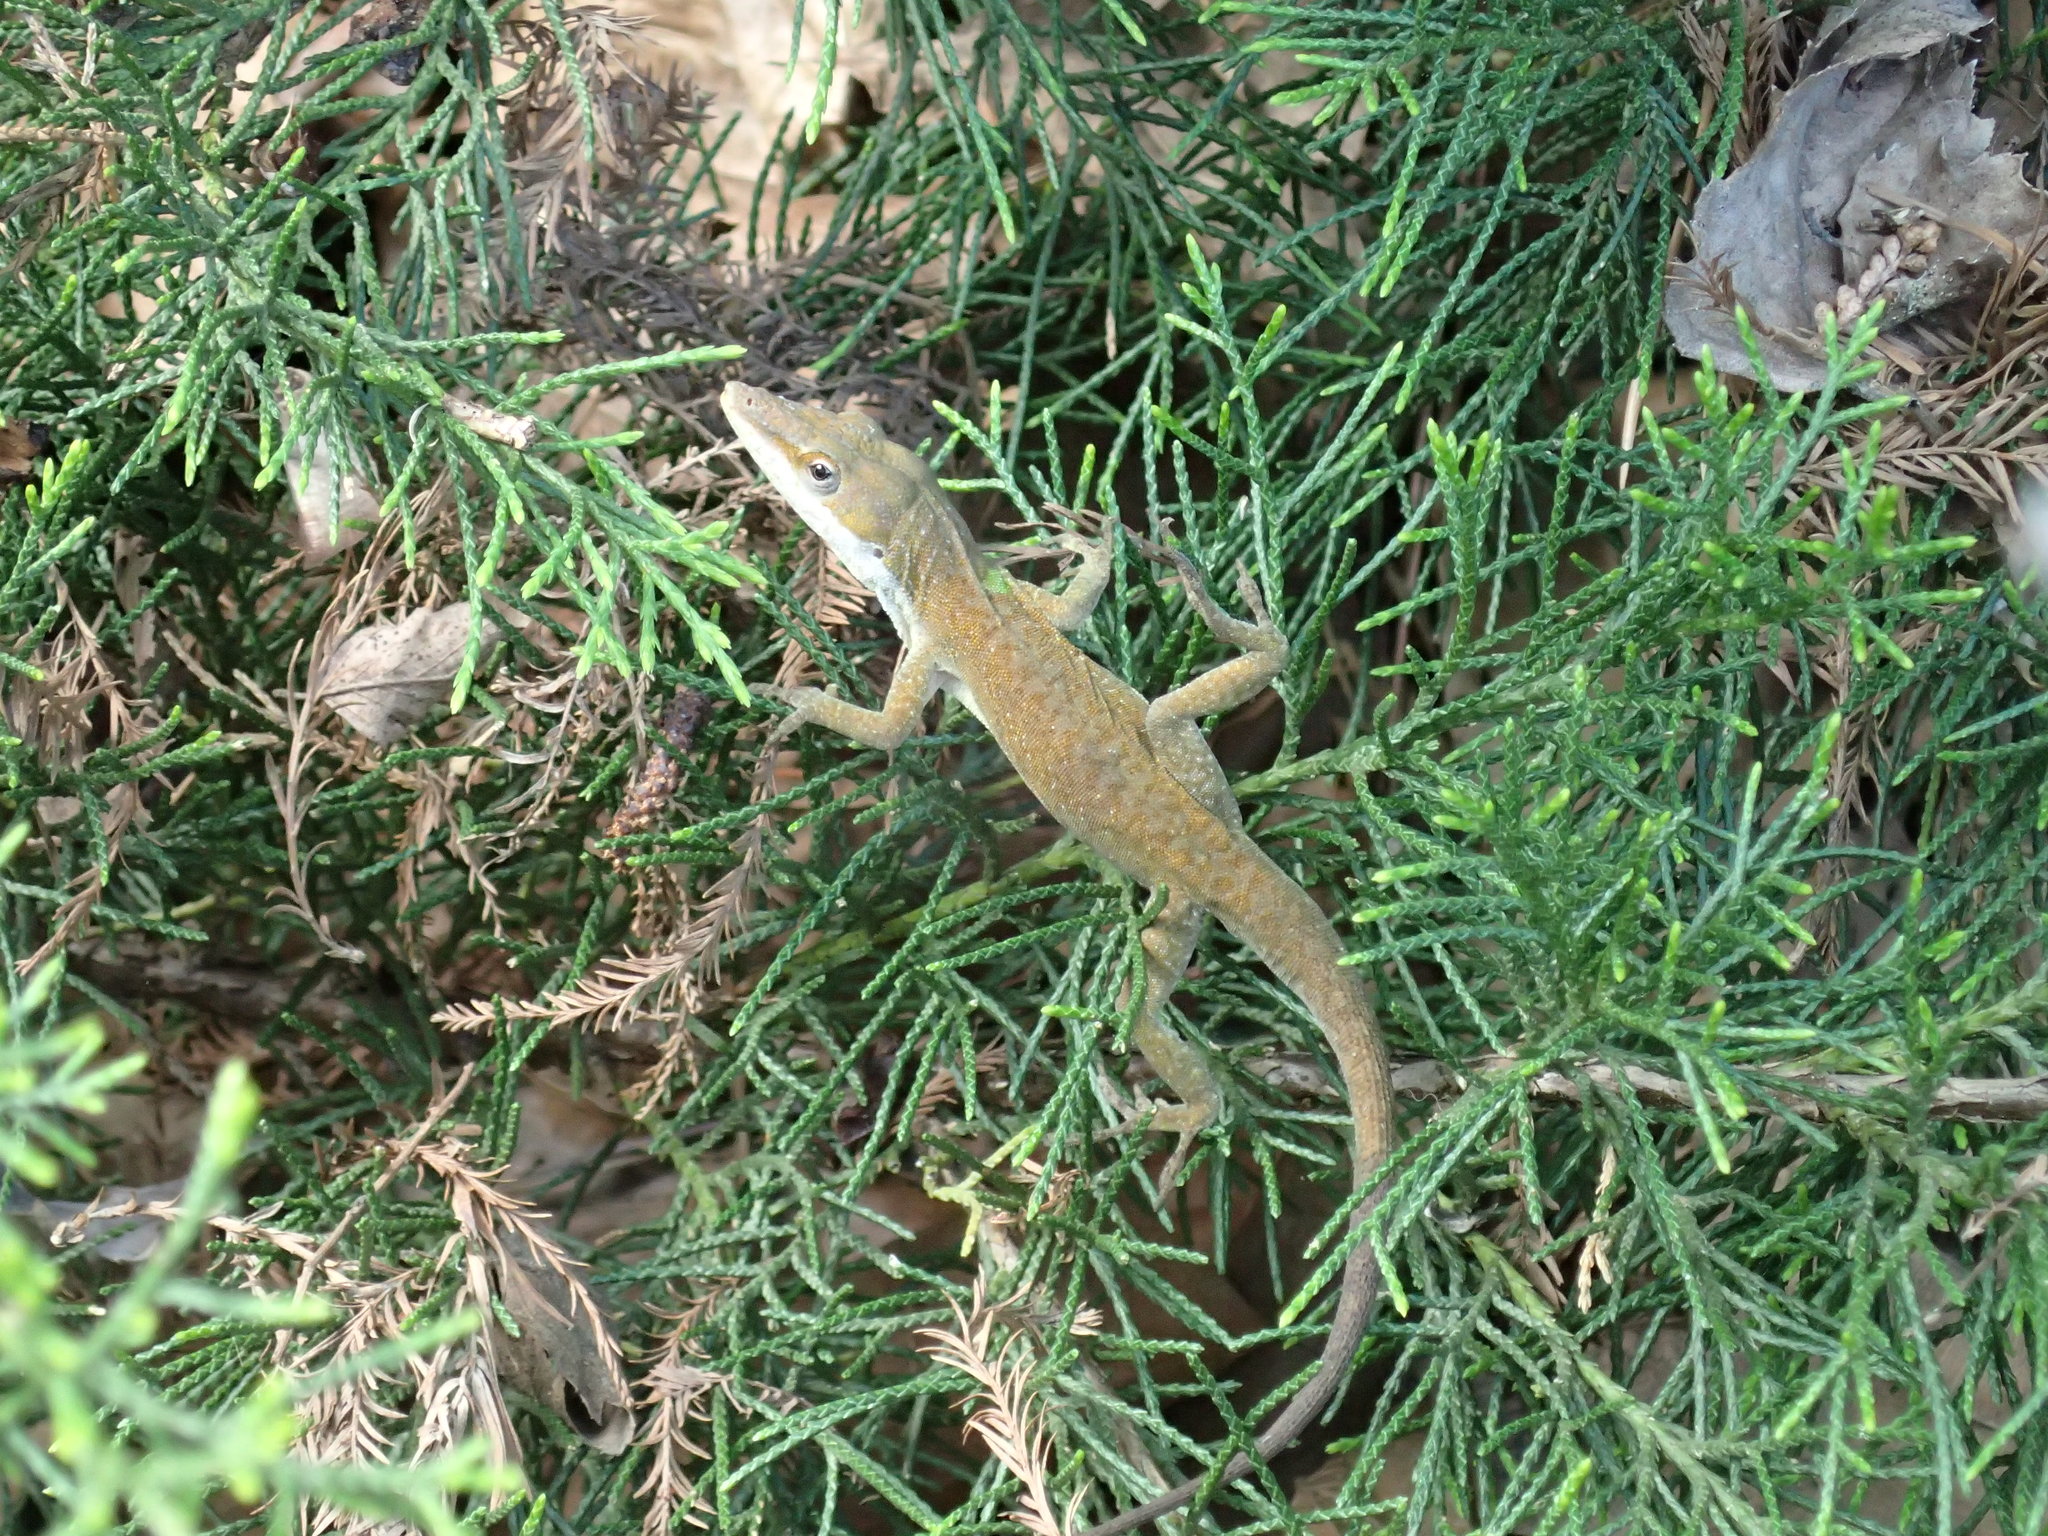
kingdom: Animalia
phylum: Chordata
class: Squamata
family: Dactyloidae
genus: Anolis
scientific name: Anolis carolinensis
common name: Green anole
